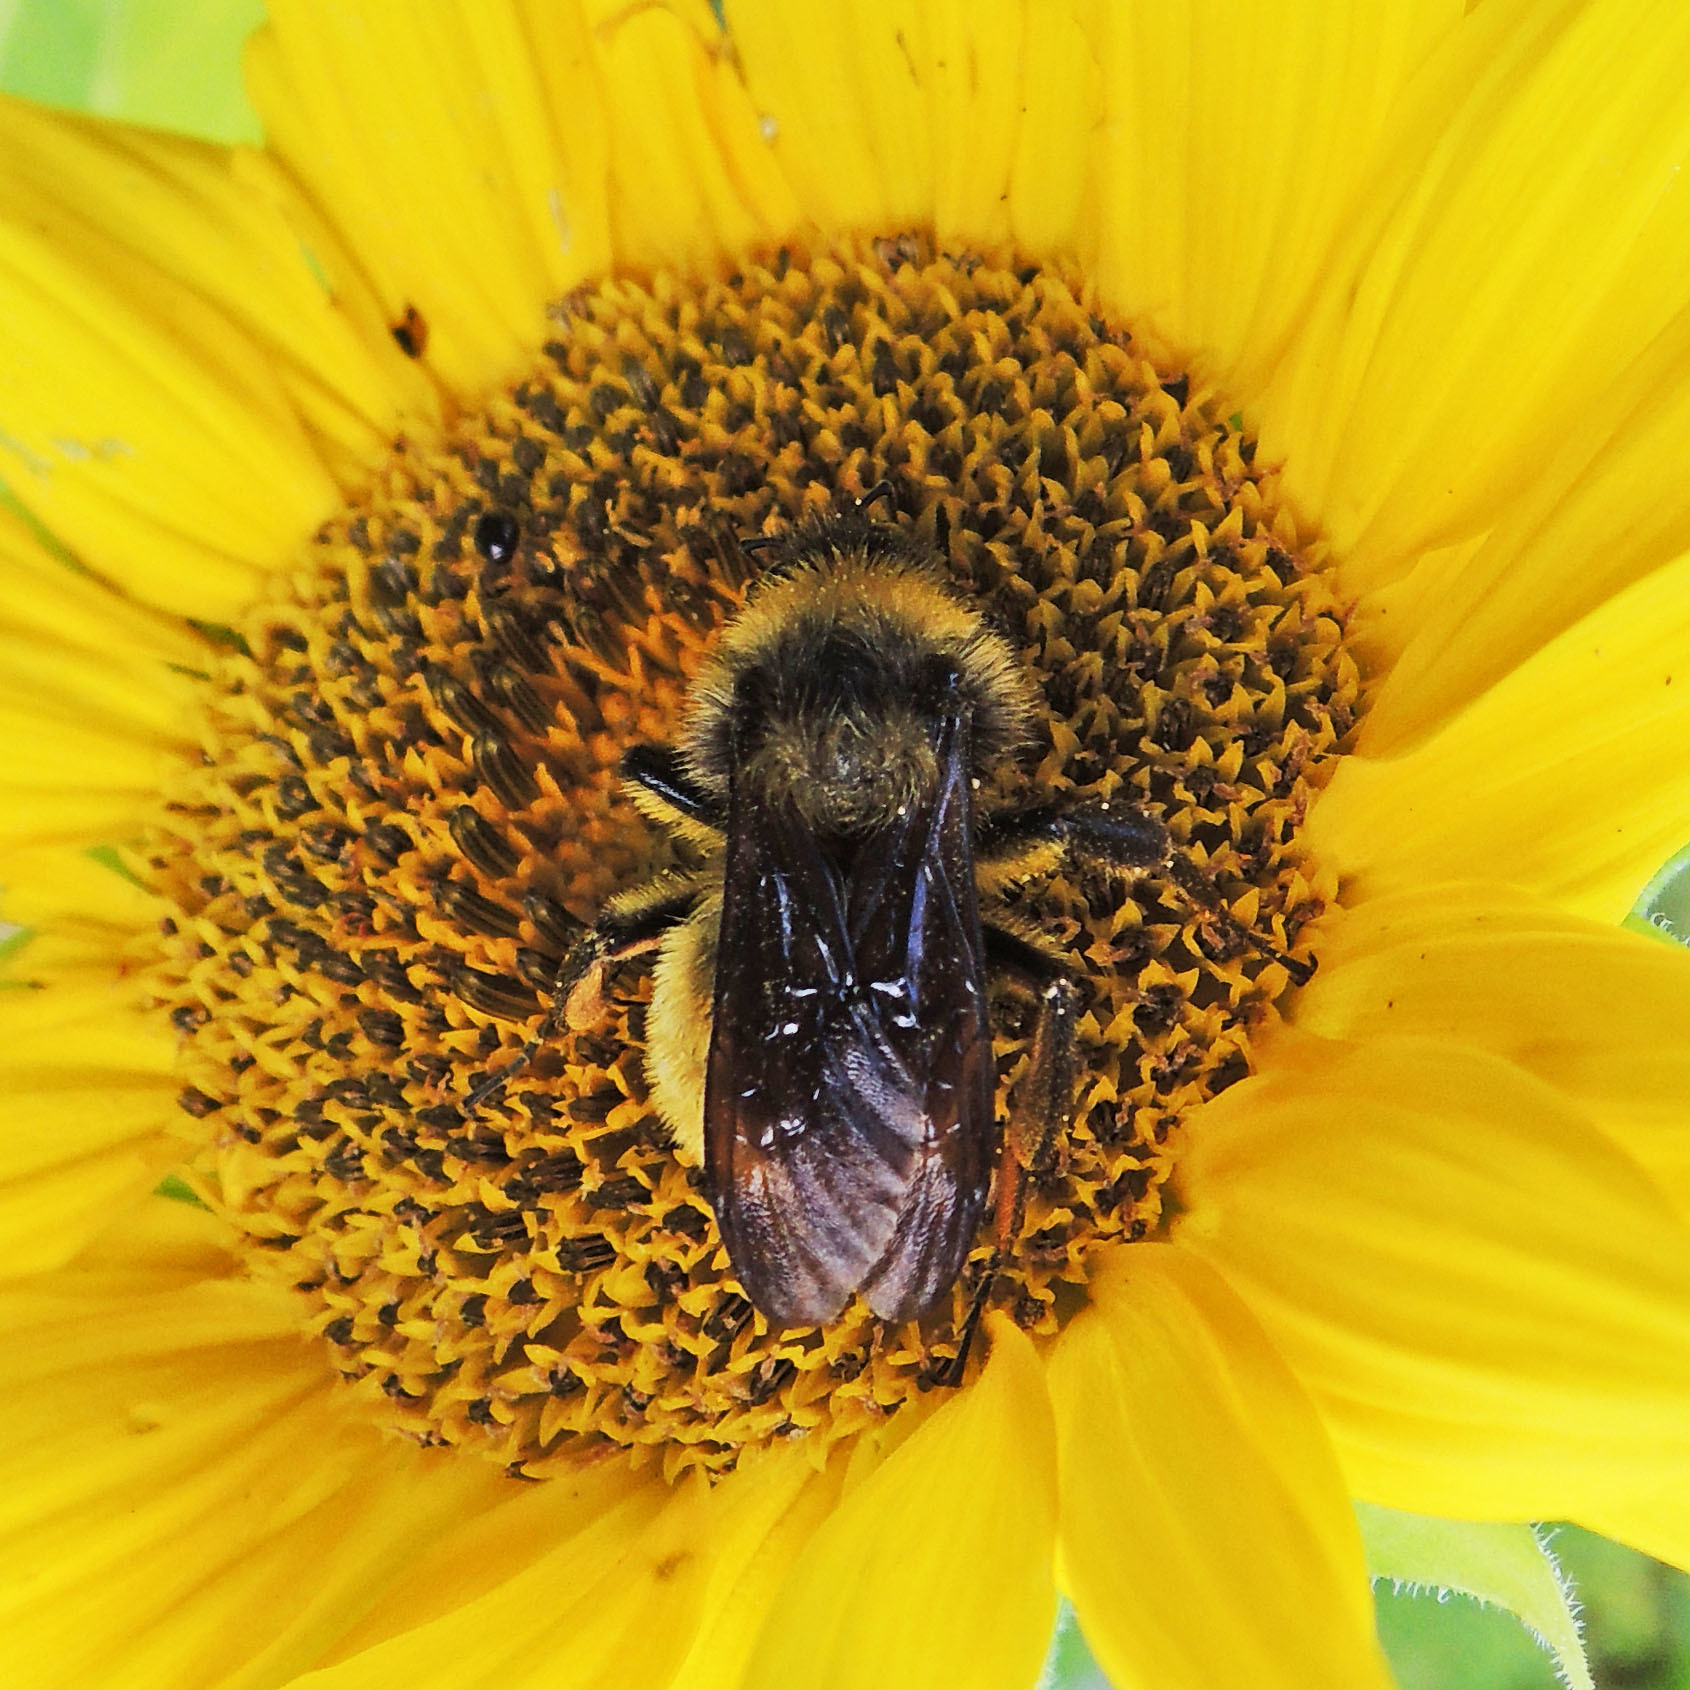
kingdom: Animalia
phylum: Arthropoda
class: Insecta
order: Hymenoptera
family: Apidae
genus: Bombus
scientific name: Bombus pensylvanicus
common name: Bumble bee
